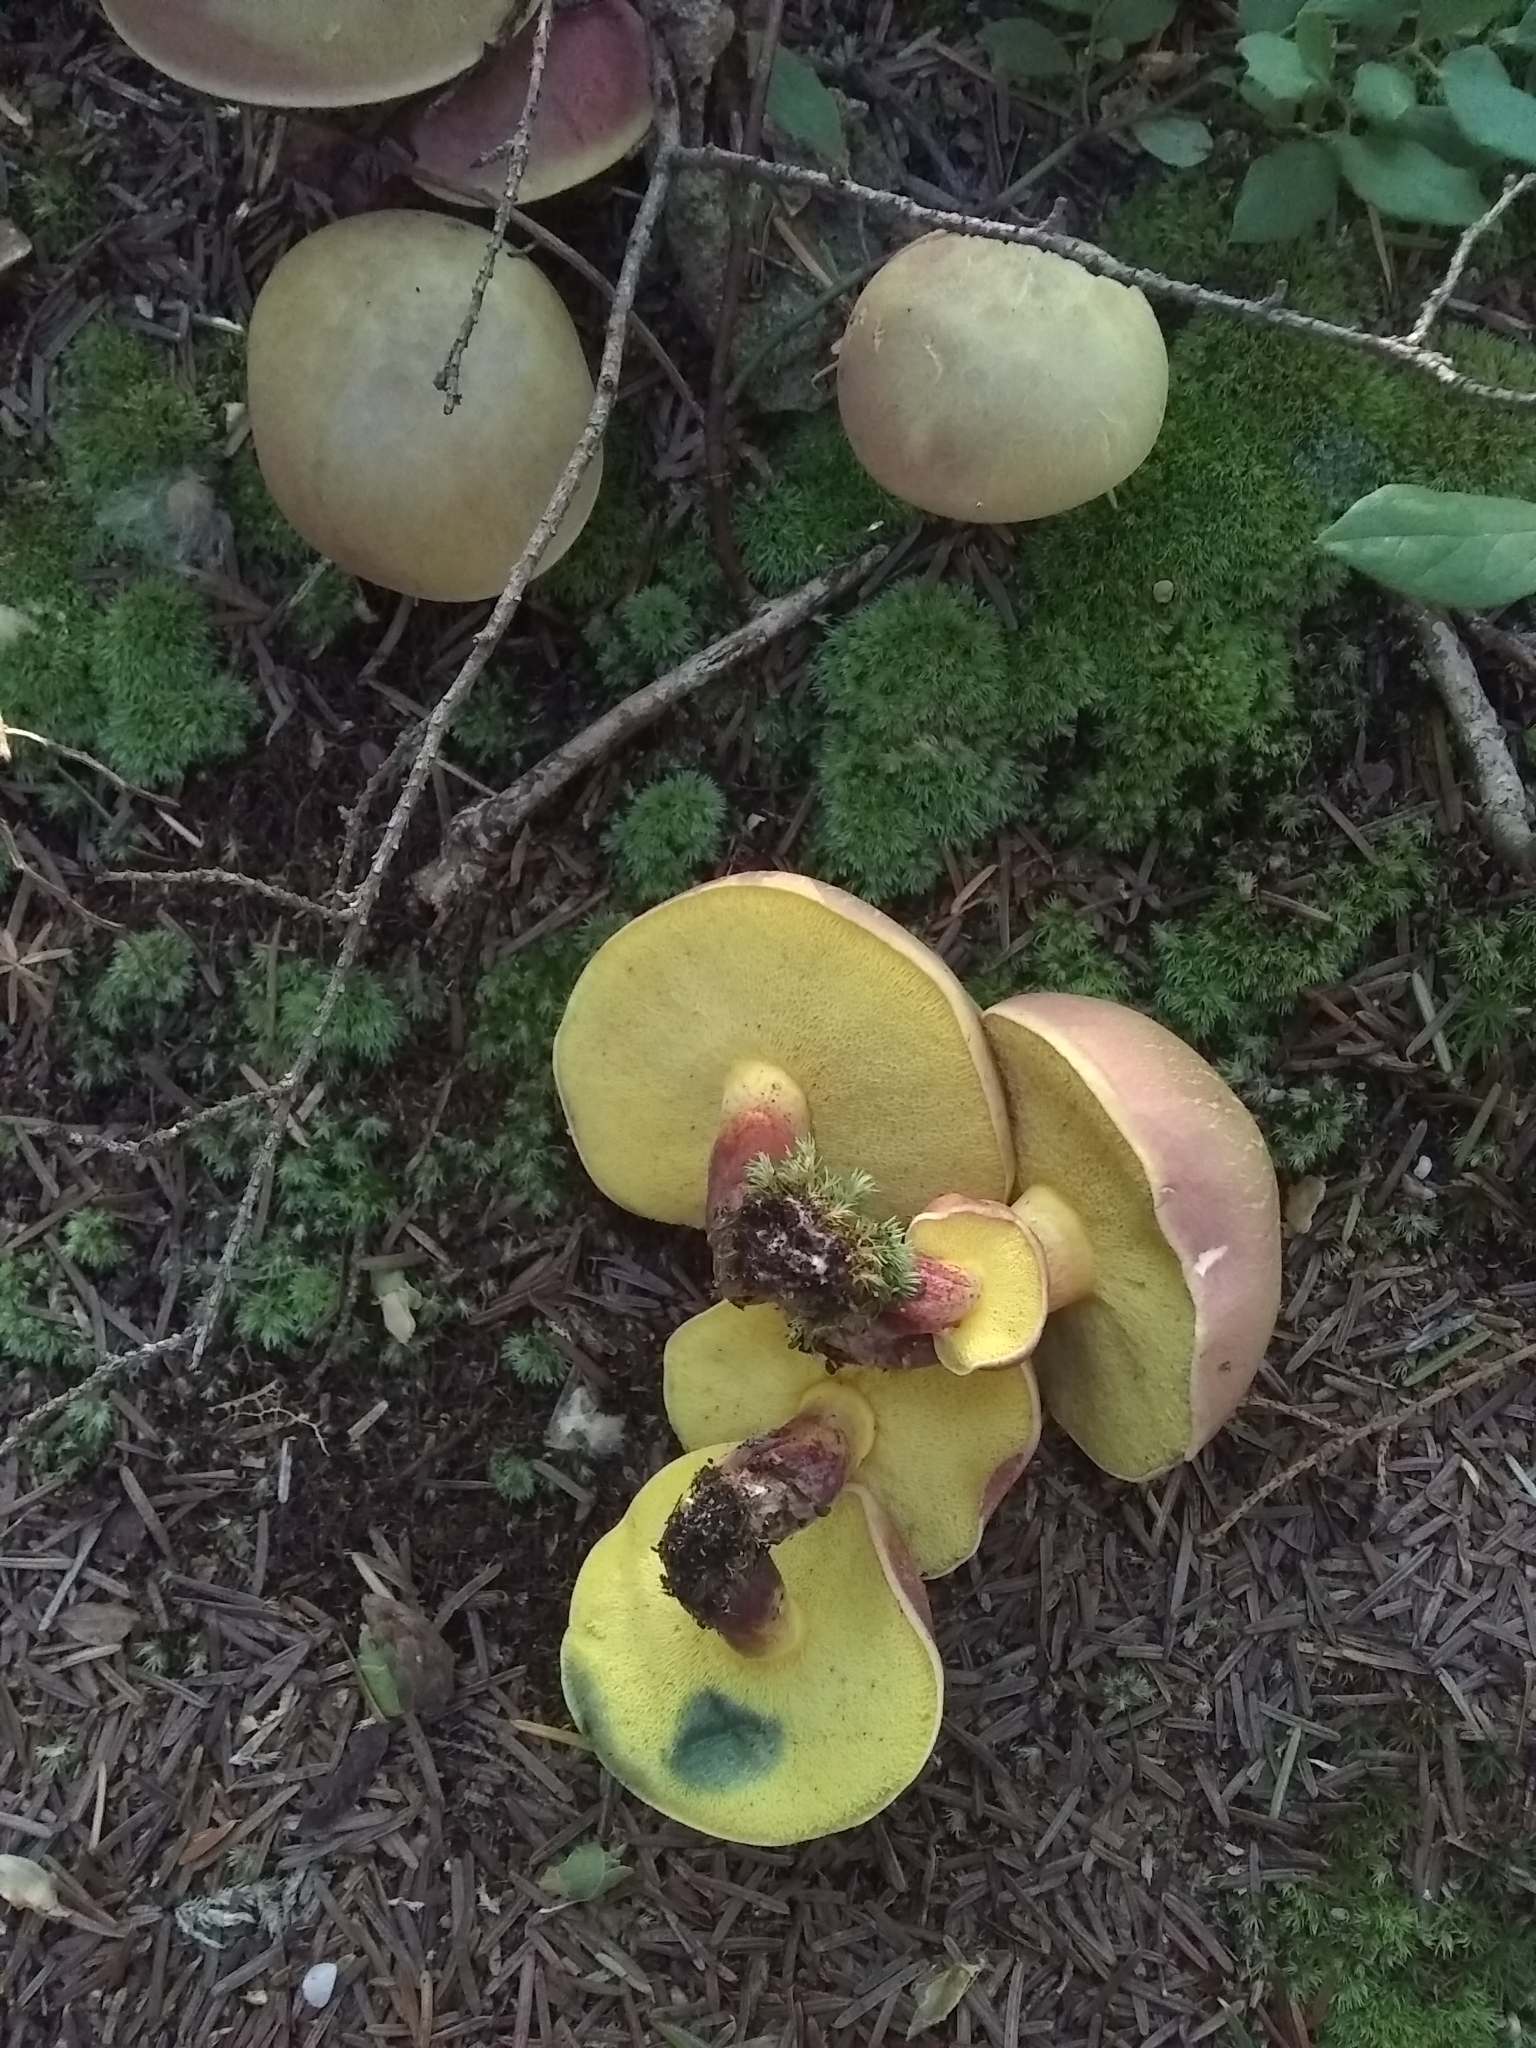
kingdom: Fungi
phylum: Basidiomycota
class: Agaricomycetes
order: Boletales
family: Boletaceae
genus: Xerocomellus
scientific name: Xerocomellus chrysenteron
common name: Red-cracking bolete
